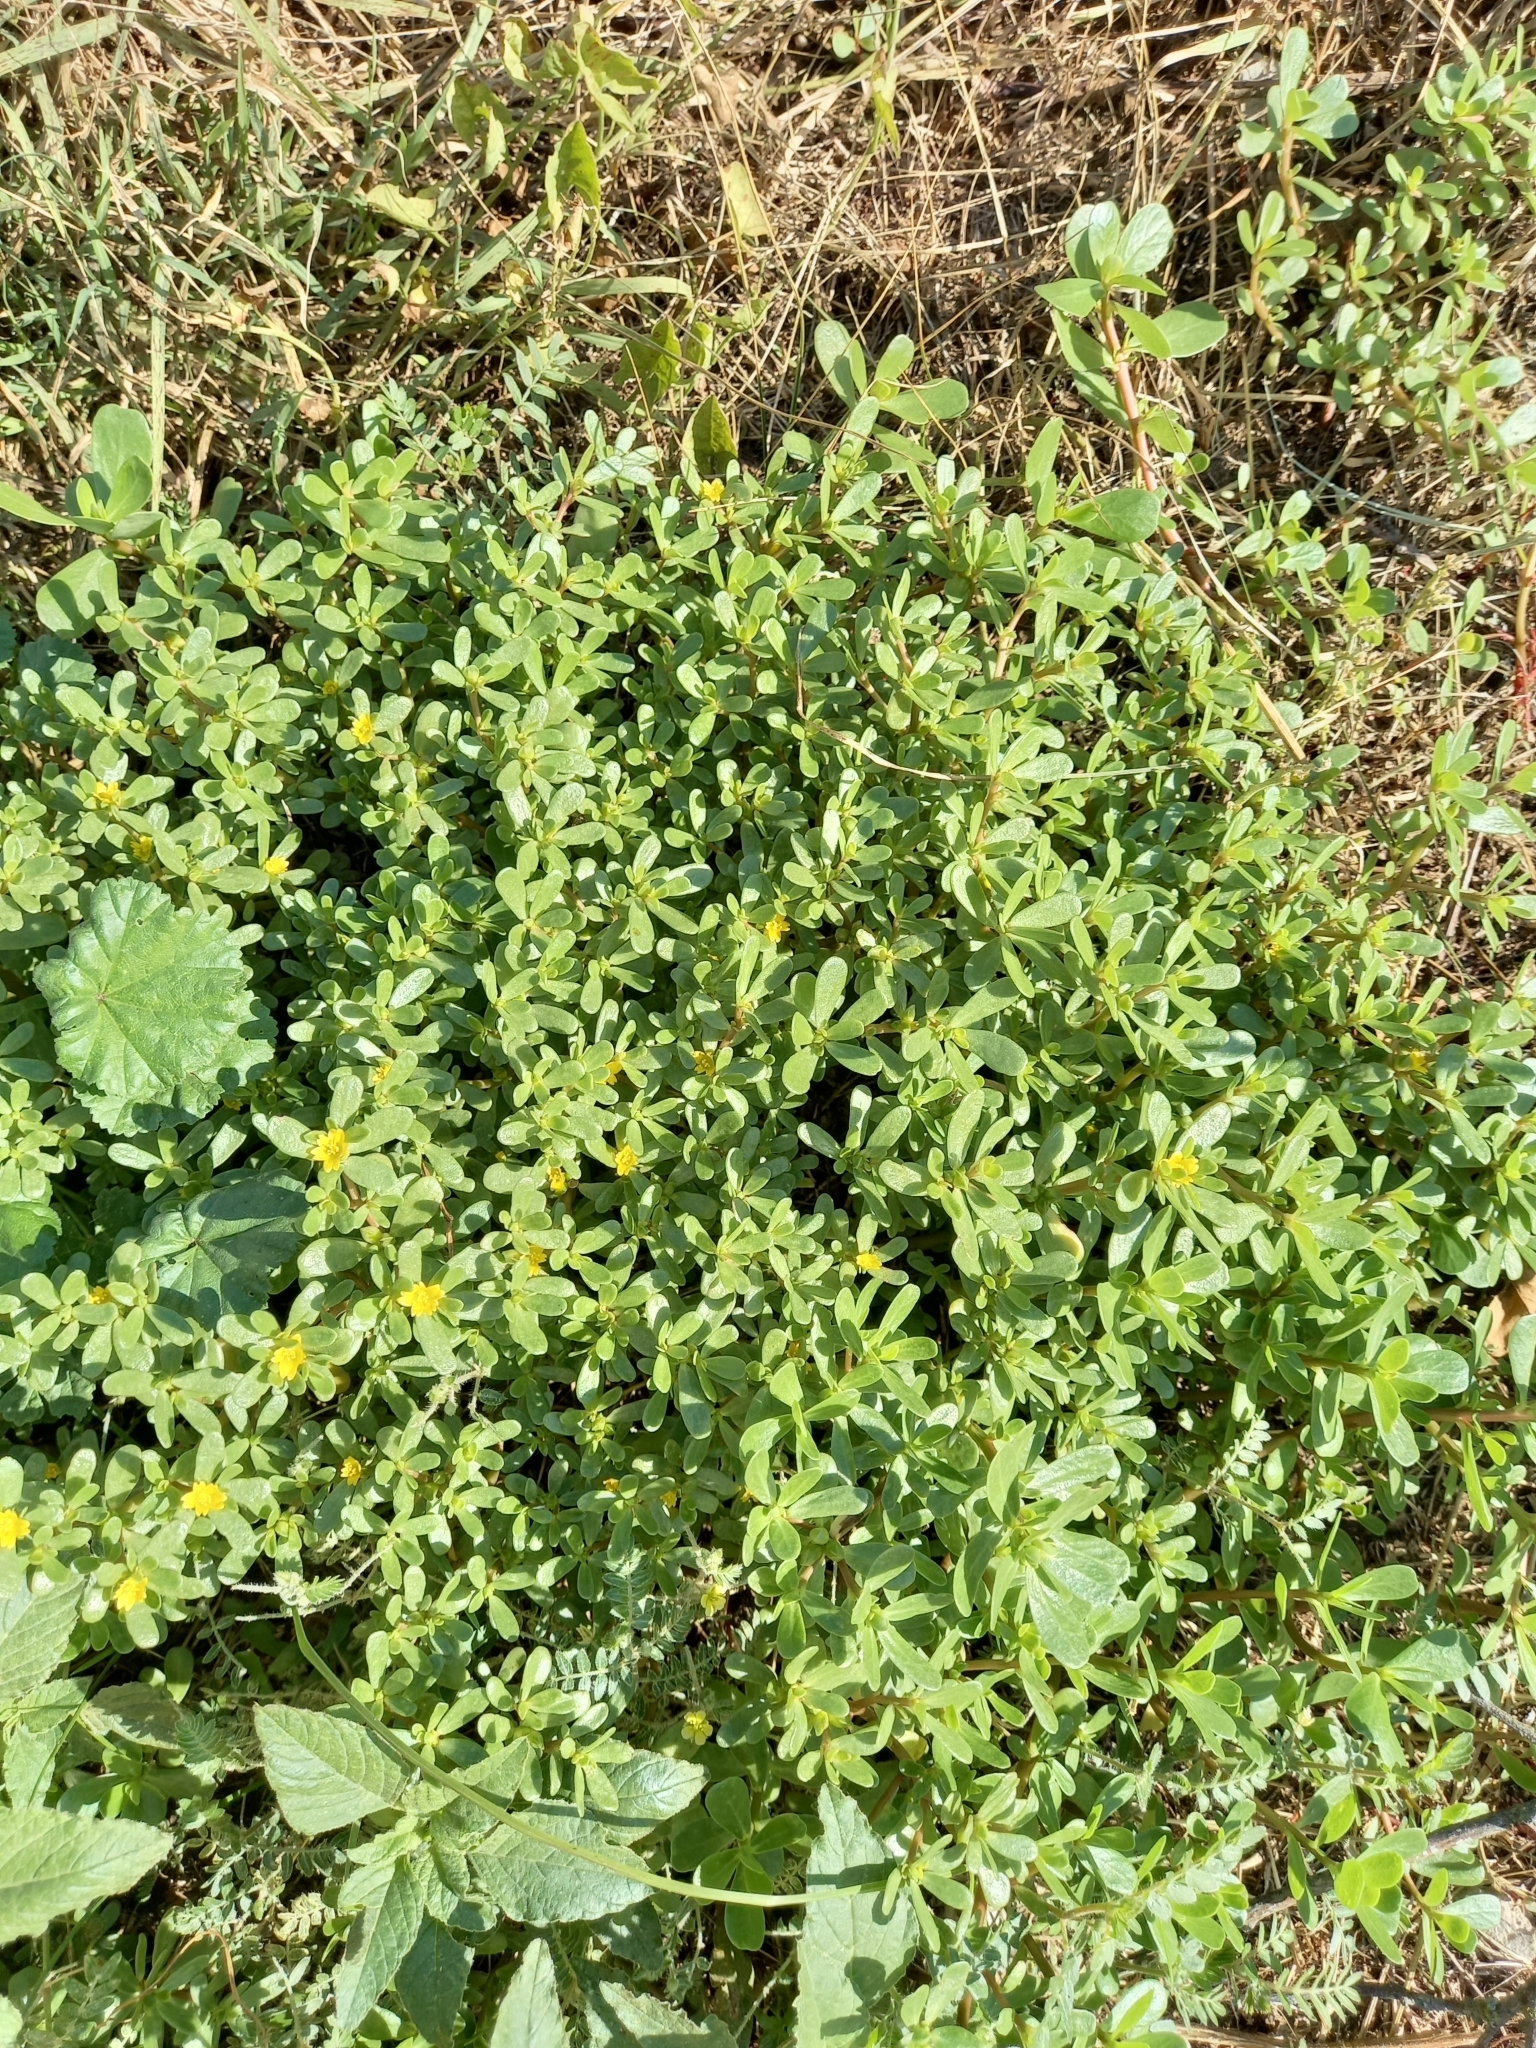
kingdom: Plantae
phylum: Tracheophyta
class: Magnoliopsida
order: Caryophyllales
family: Portulacaceae
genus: Portulaca
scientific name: Portulaca oleracea
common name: Common purslane
